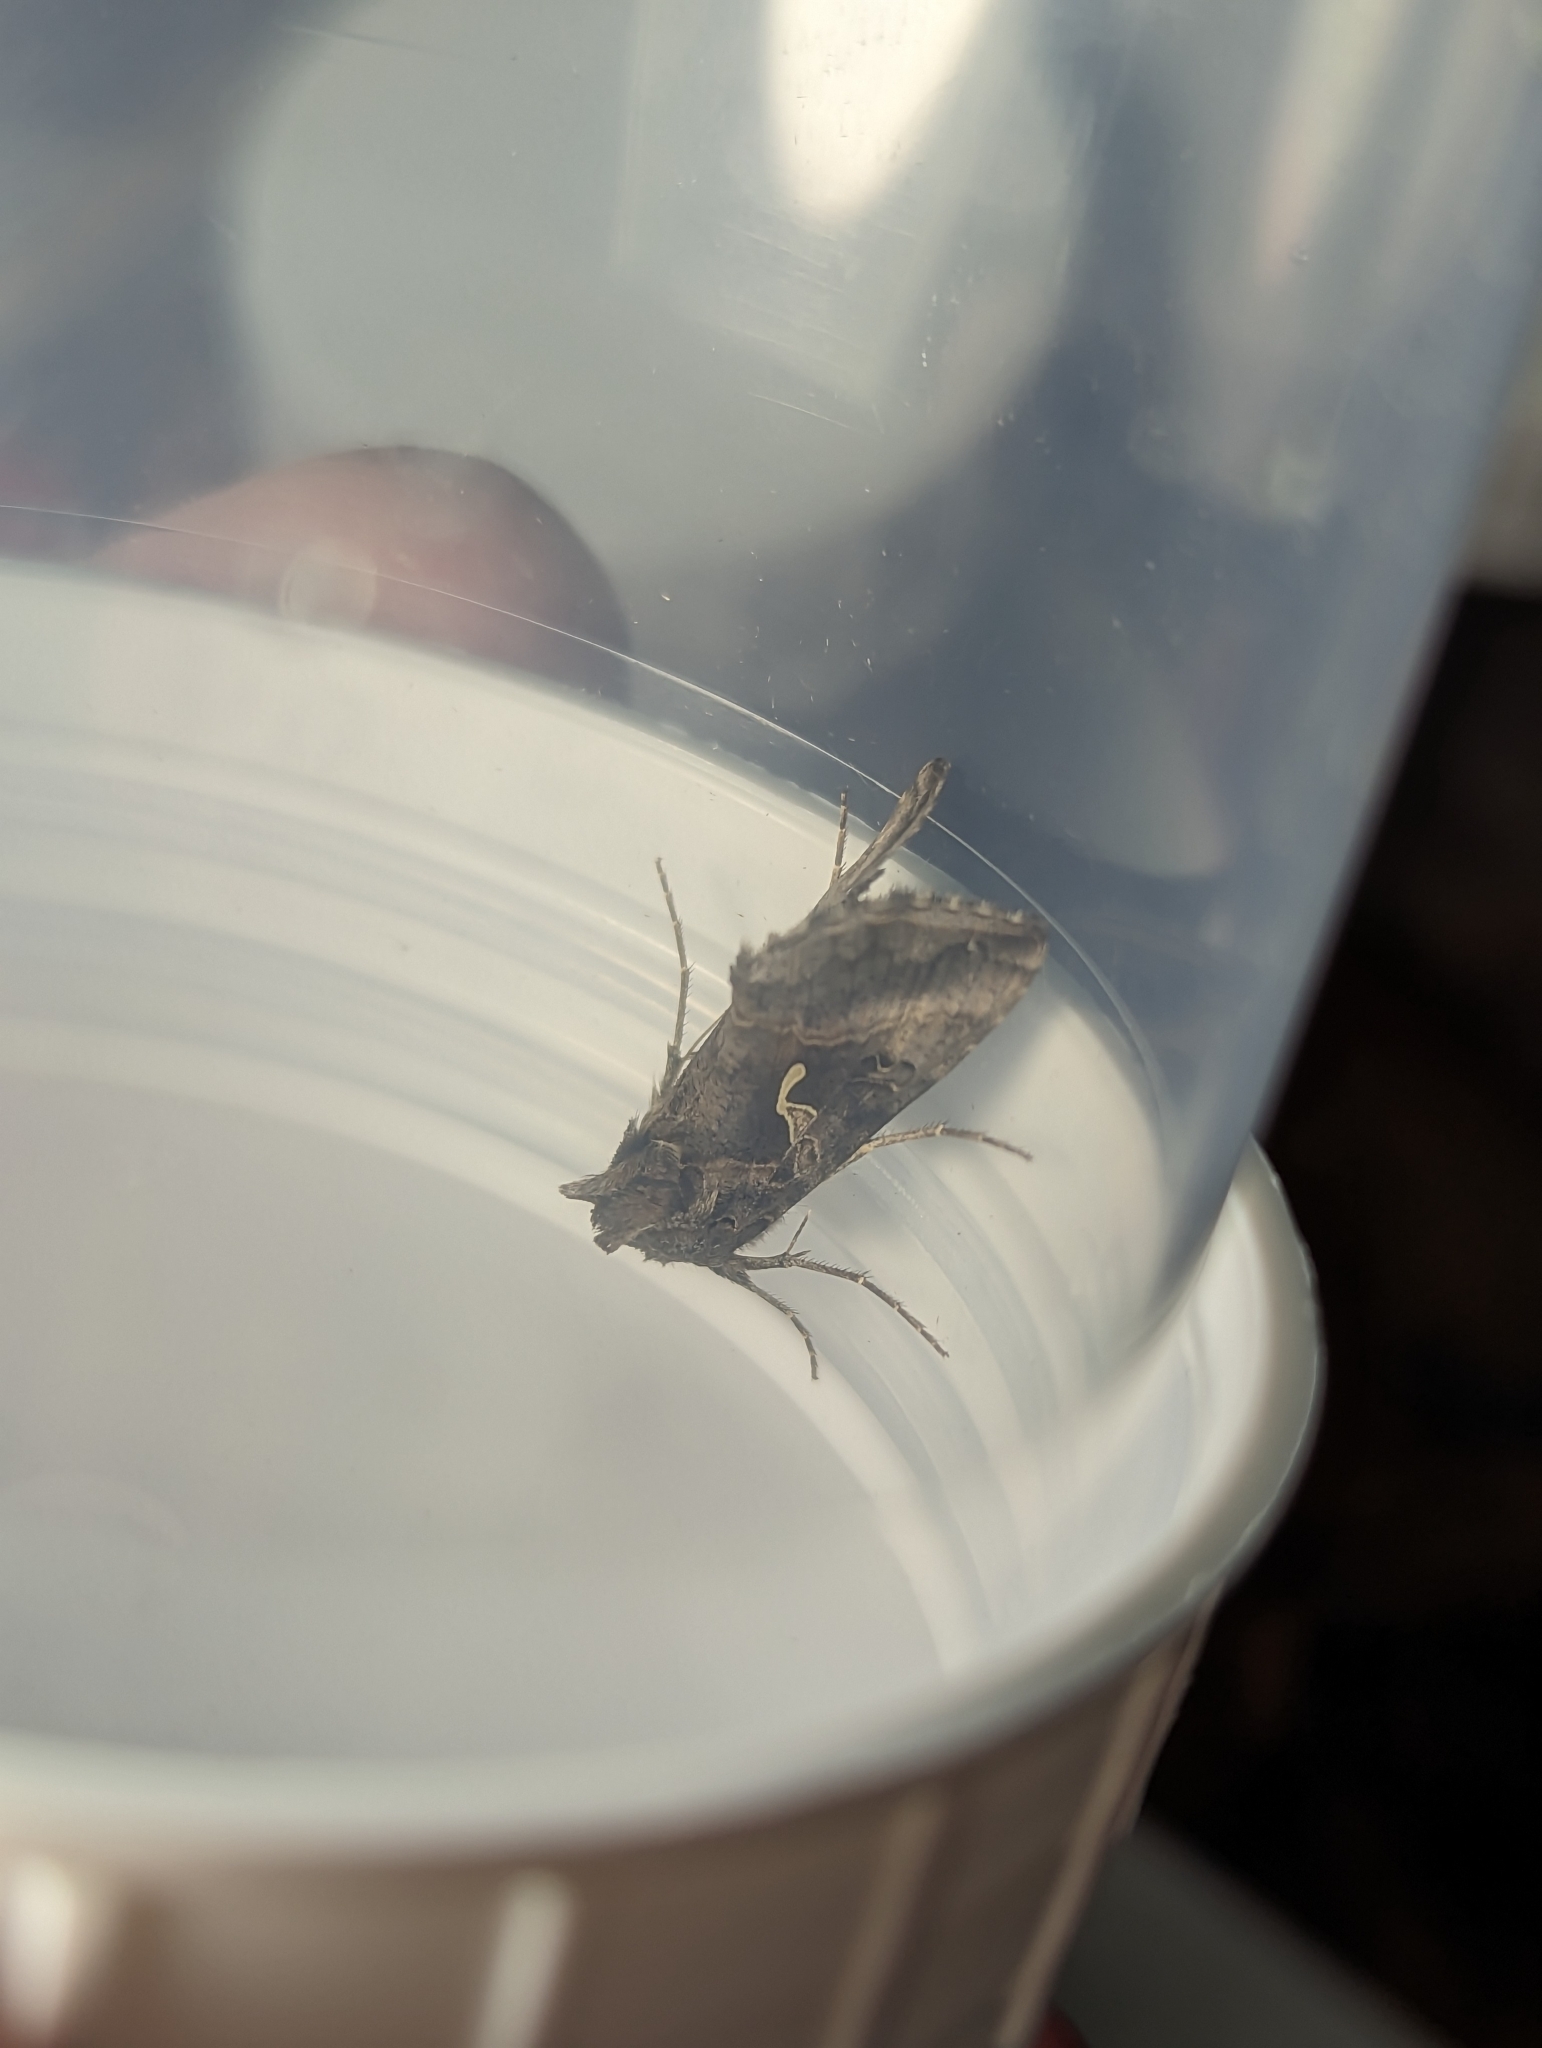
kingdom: Animalia
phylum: Arthropoda
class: Insecta
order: Lepidoptera
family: Noctuidae
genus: Autographa
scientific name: Autographa gamma
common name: Silver y
